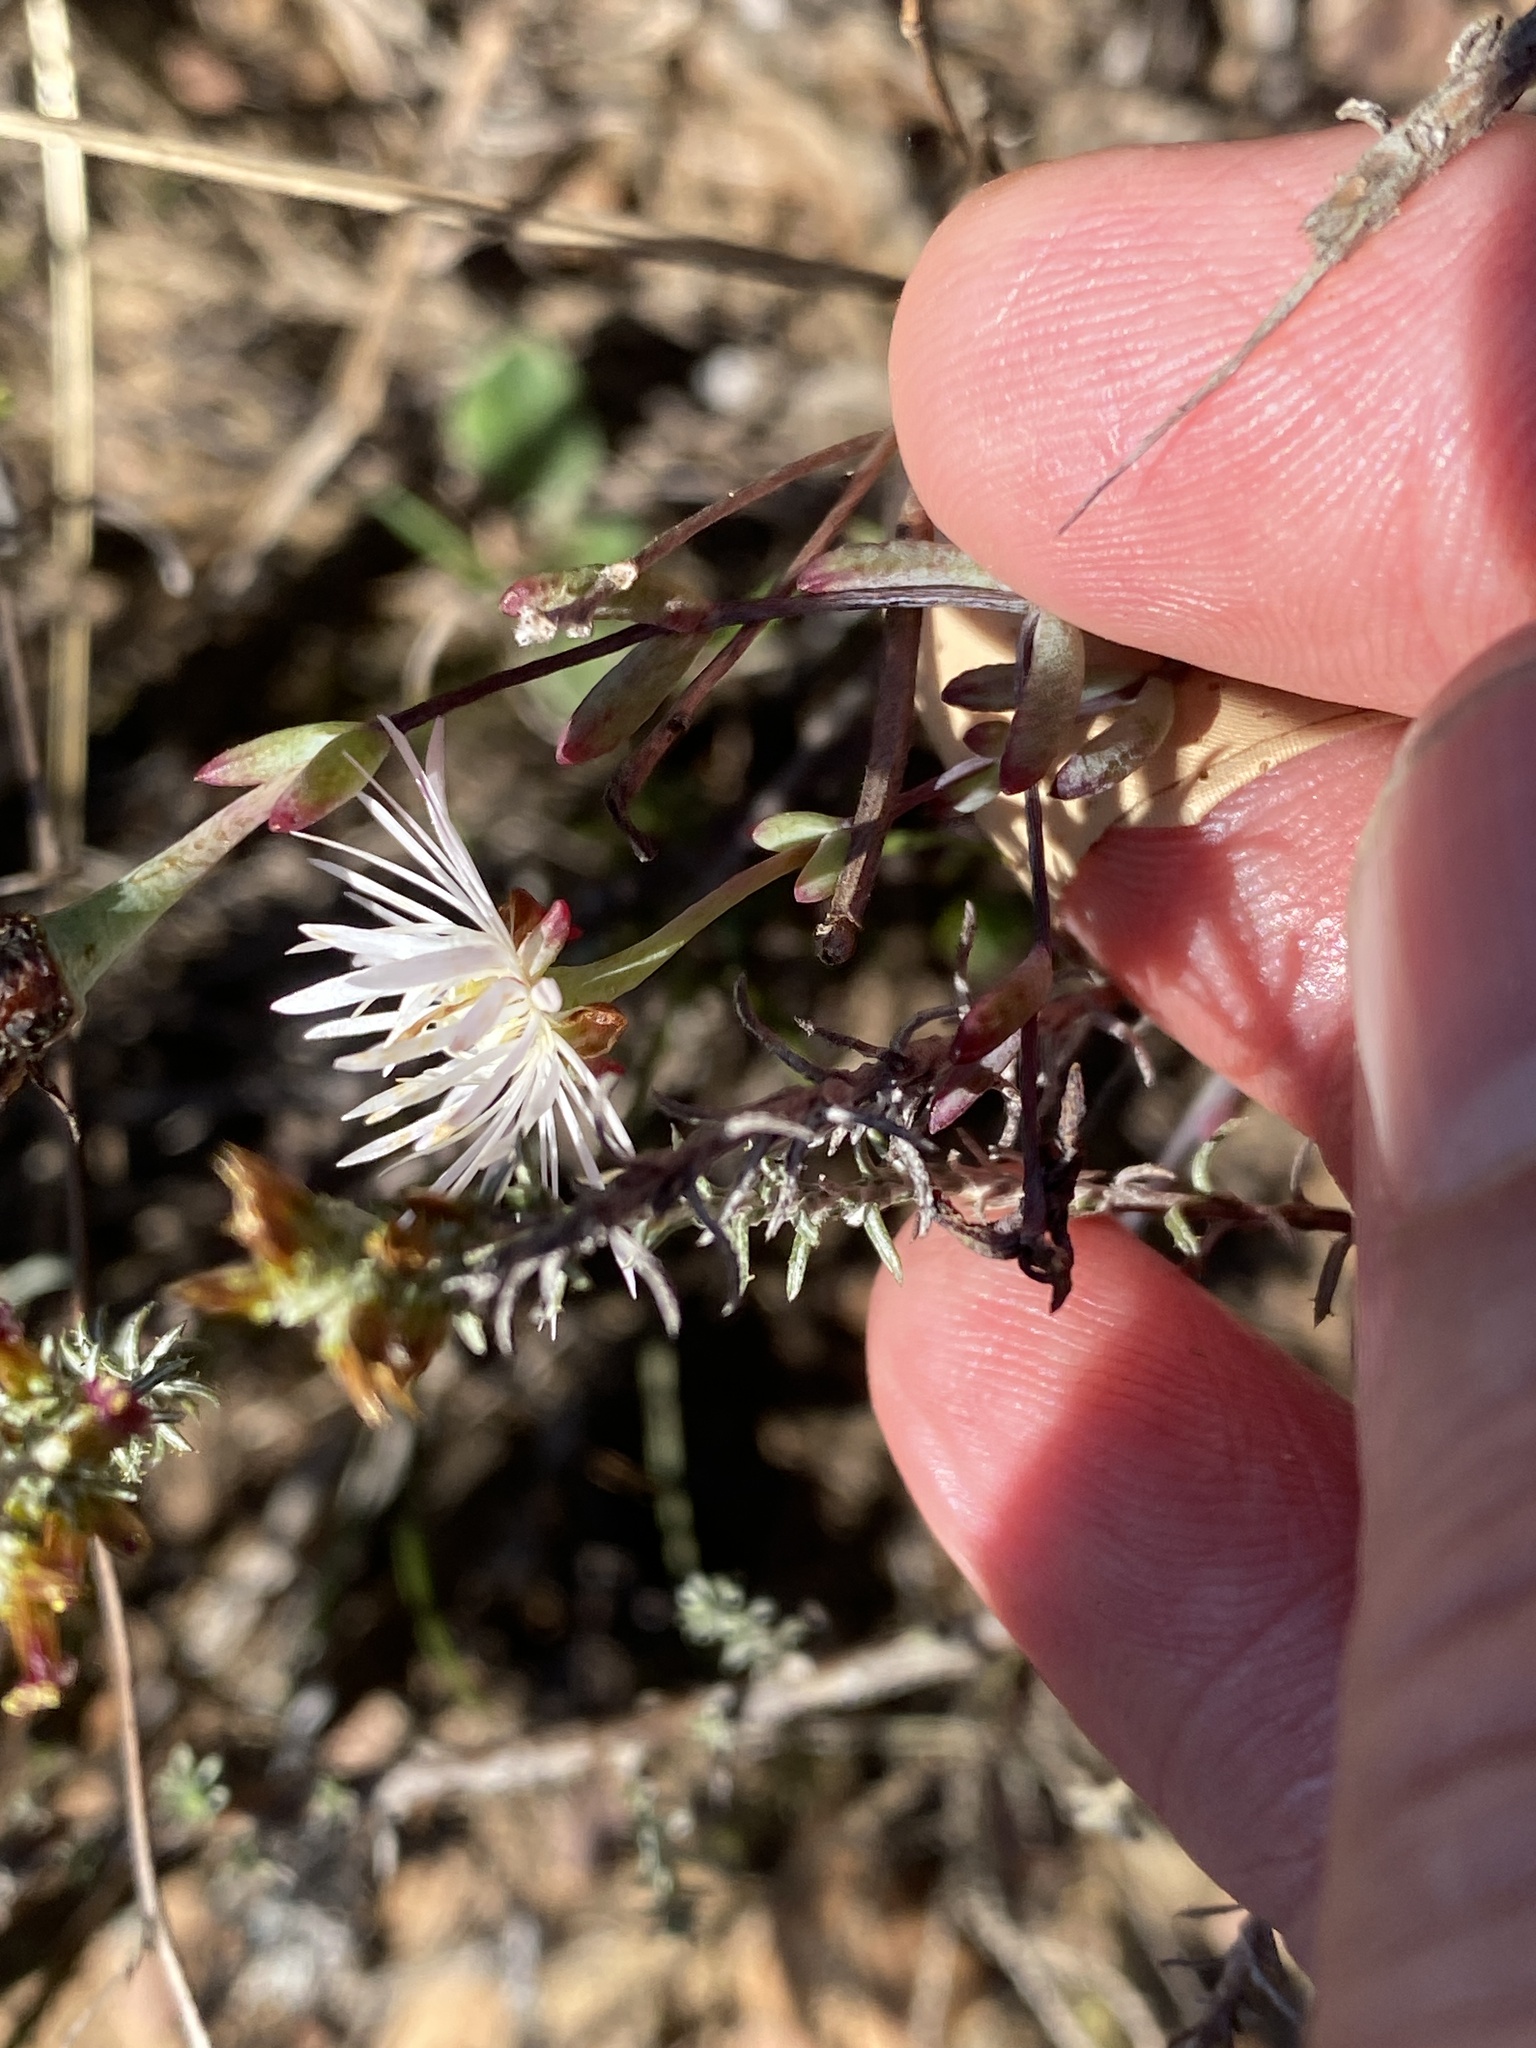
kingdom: Plantae
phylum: Tracheophyta
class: Magnoliopsida
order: Caryophyllales
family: Aizoaceae
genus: Lampranthus
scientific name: Lampranthus falcatus
